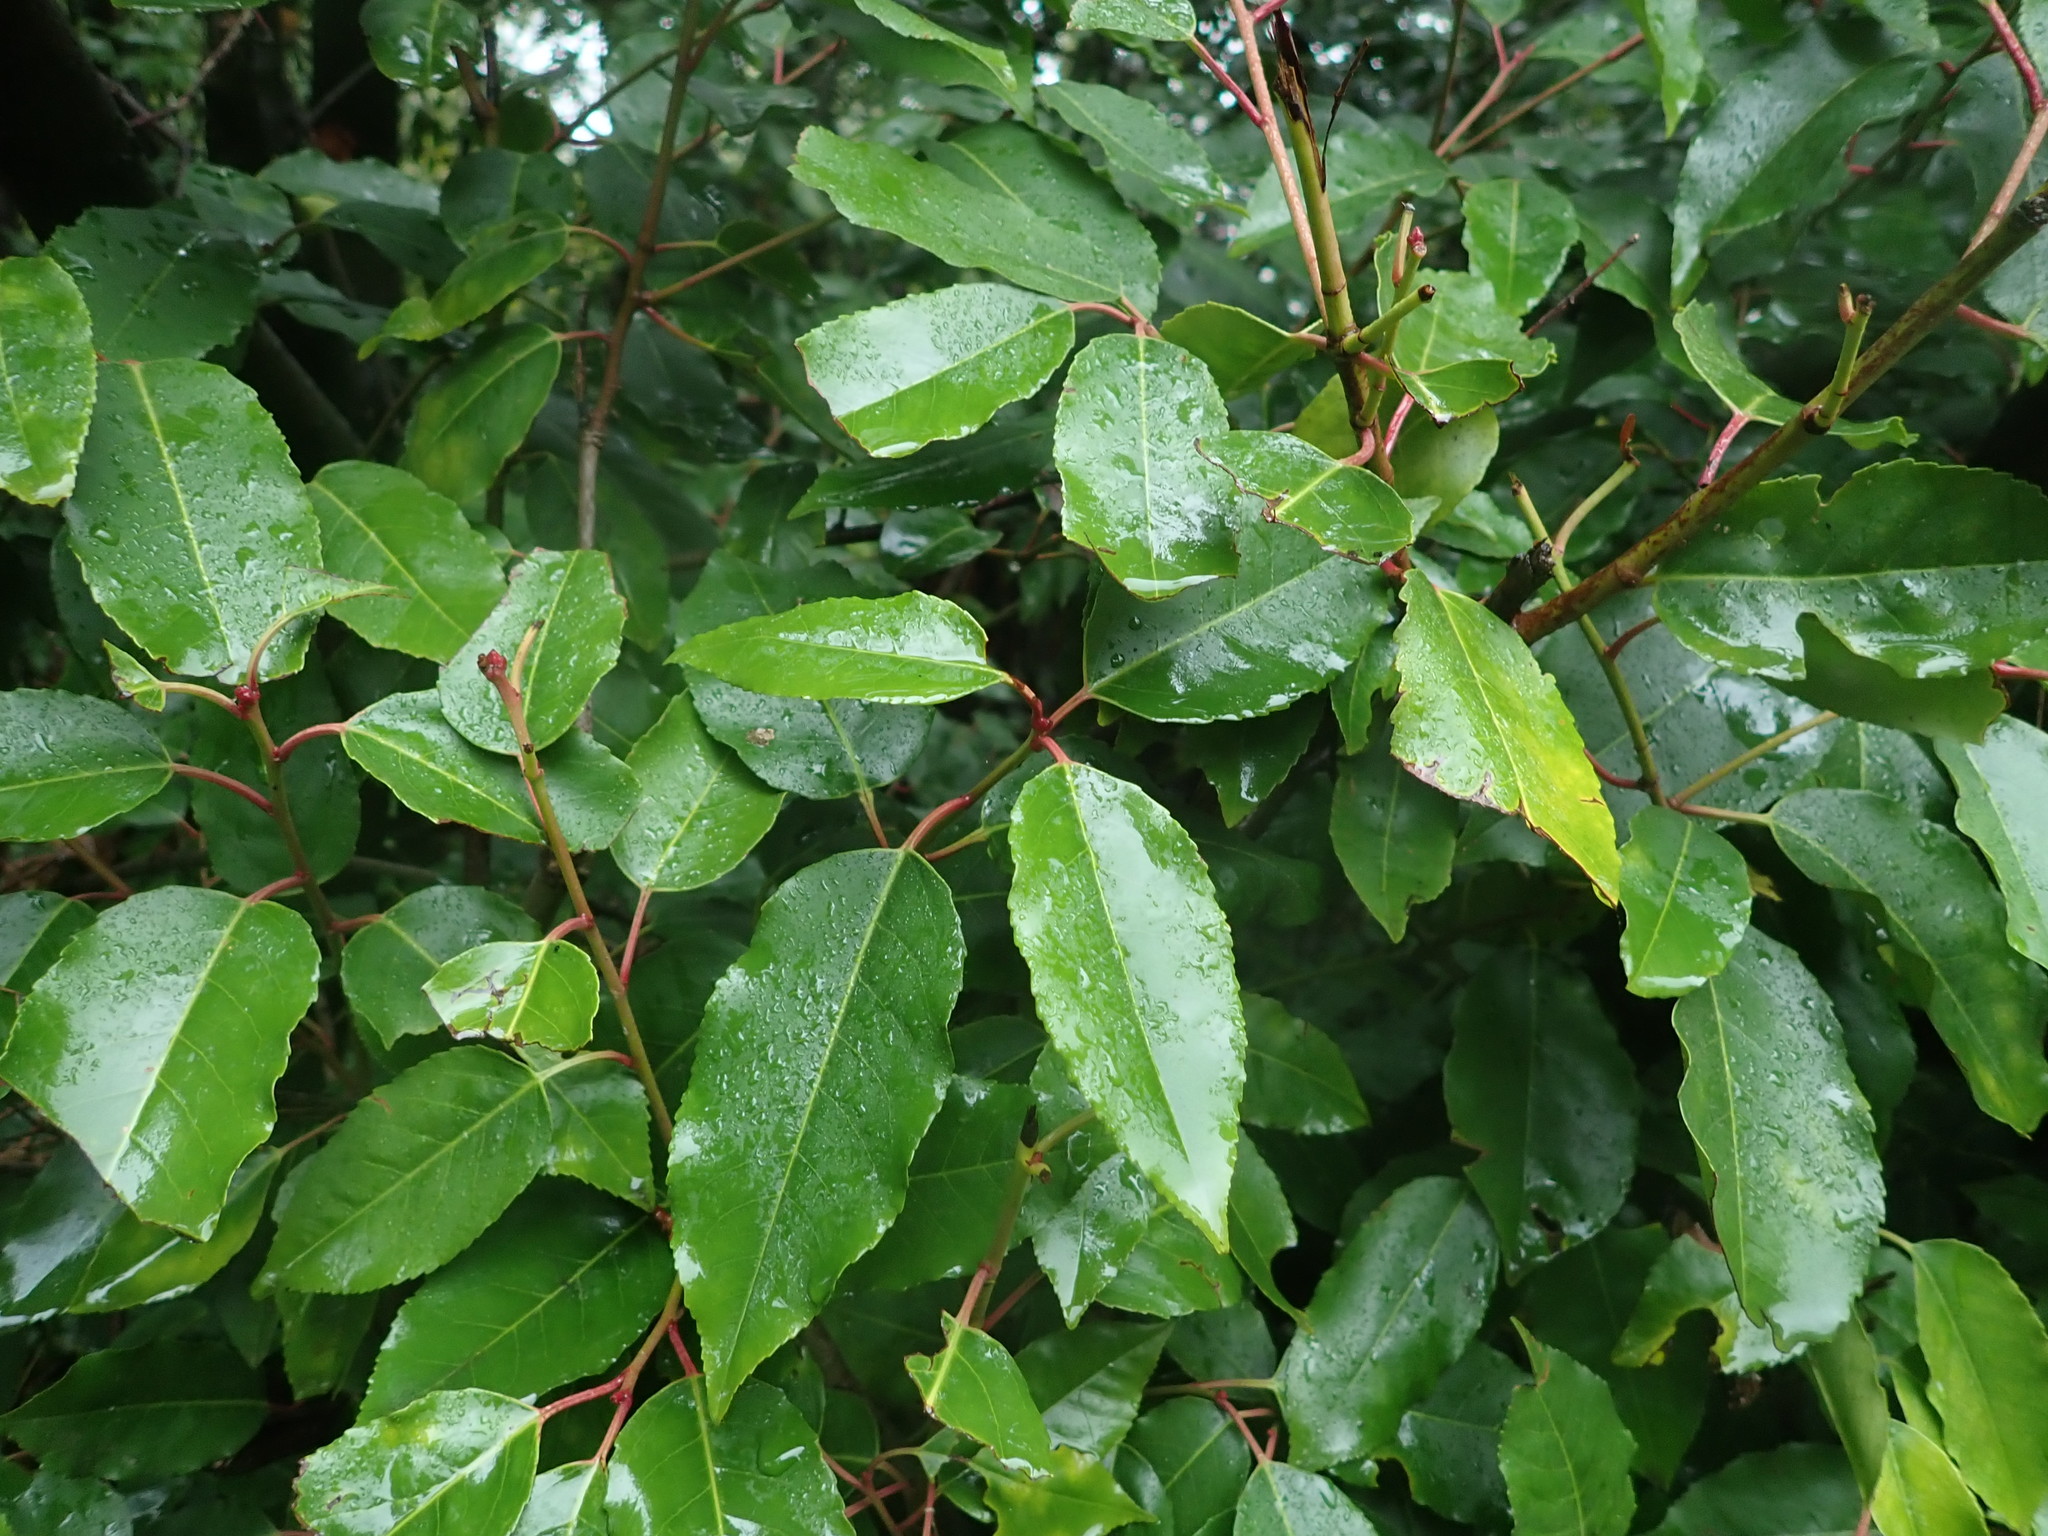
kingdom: Plantae
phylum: Tracheophyta
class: Magnoliopsida
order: Rosales
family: Rosaceae
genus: Prunus
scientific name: Prunus lusitanica
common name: Portugal laurel
